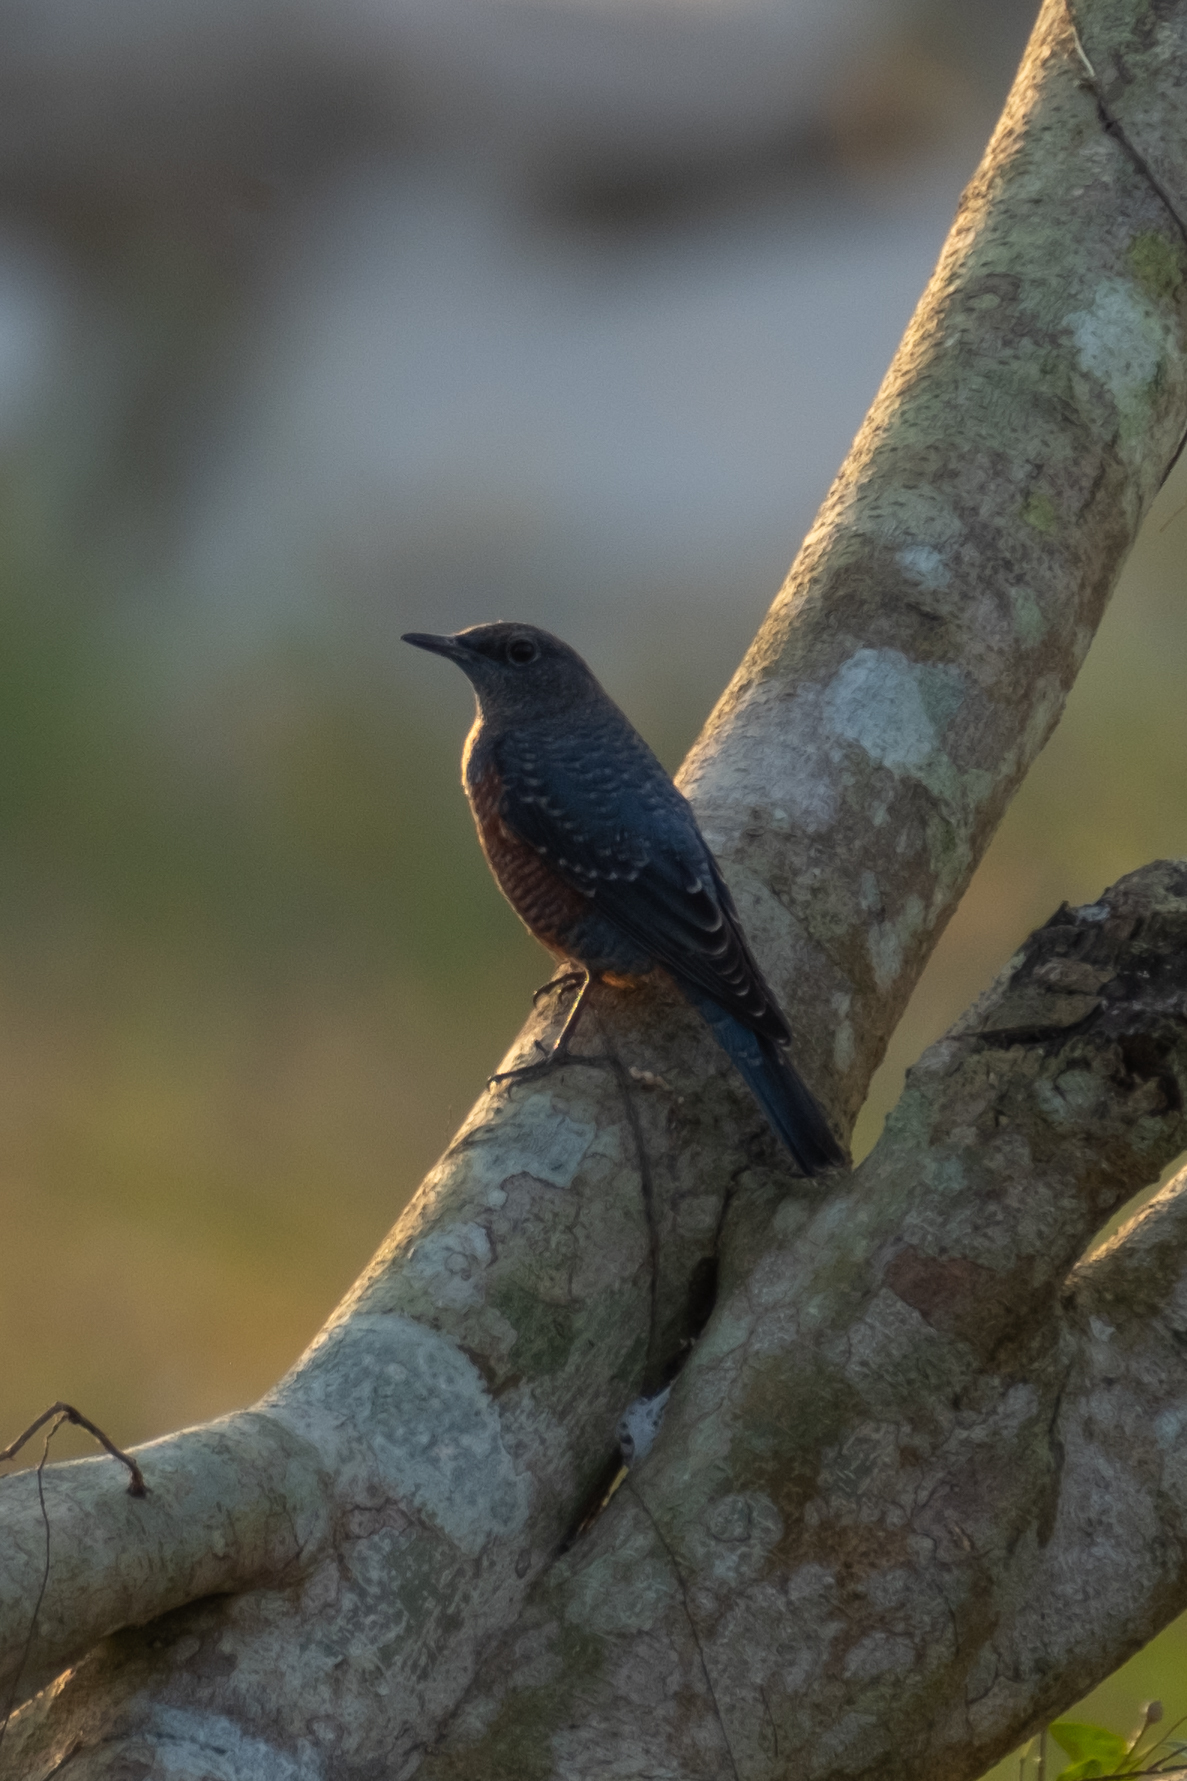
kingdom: Animalia
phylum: Chordata
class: Aves
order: Passeriformes
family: Muscicapidae
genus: Monticola
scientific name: Monticola solitarius
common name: Blue rock thrush
